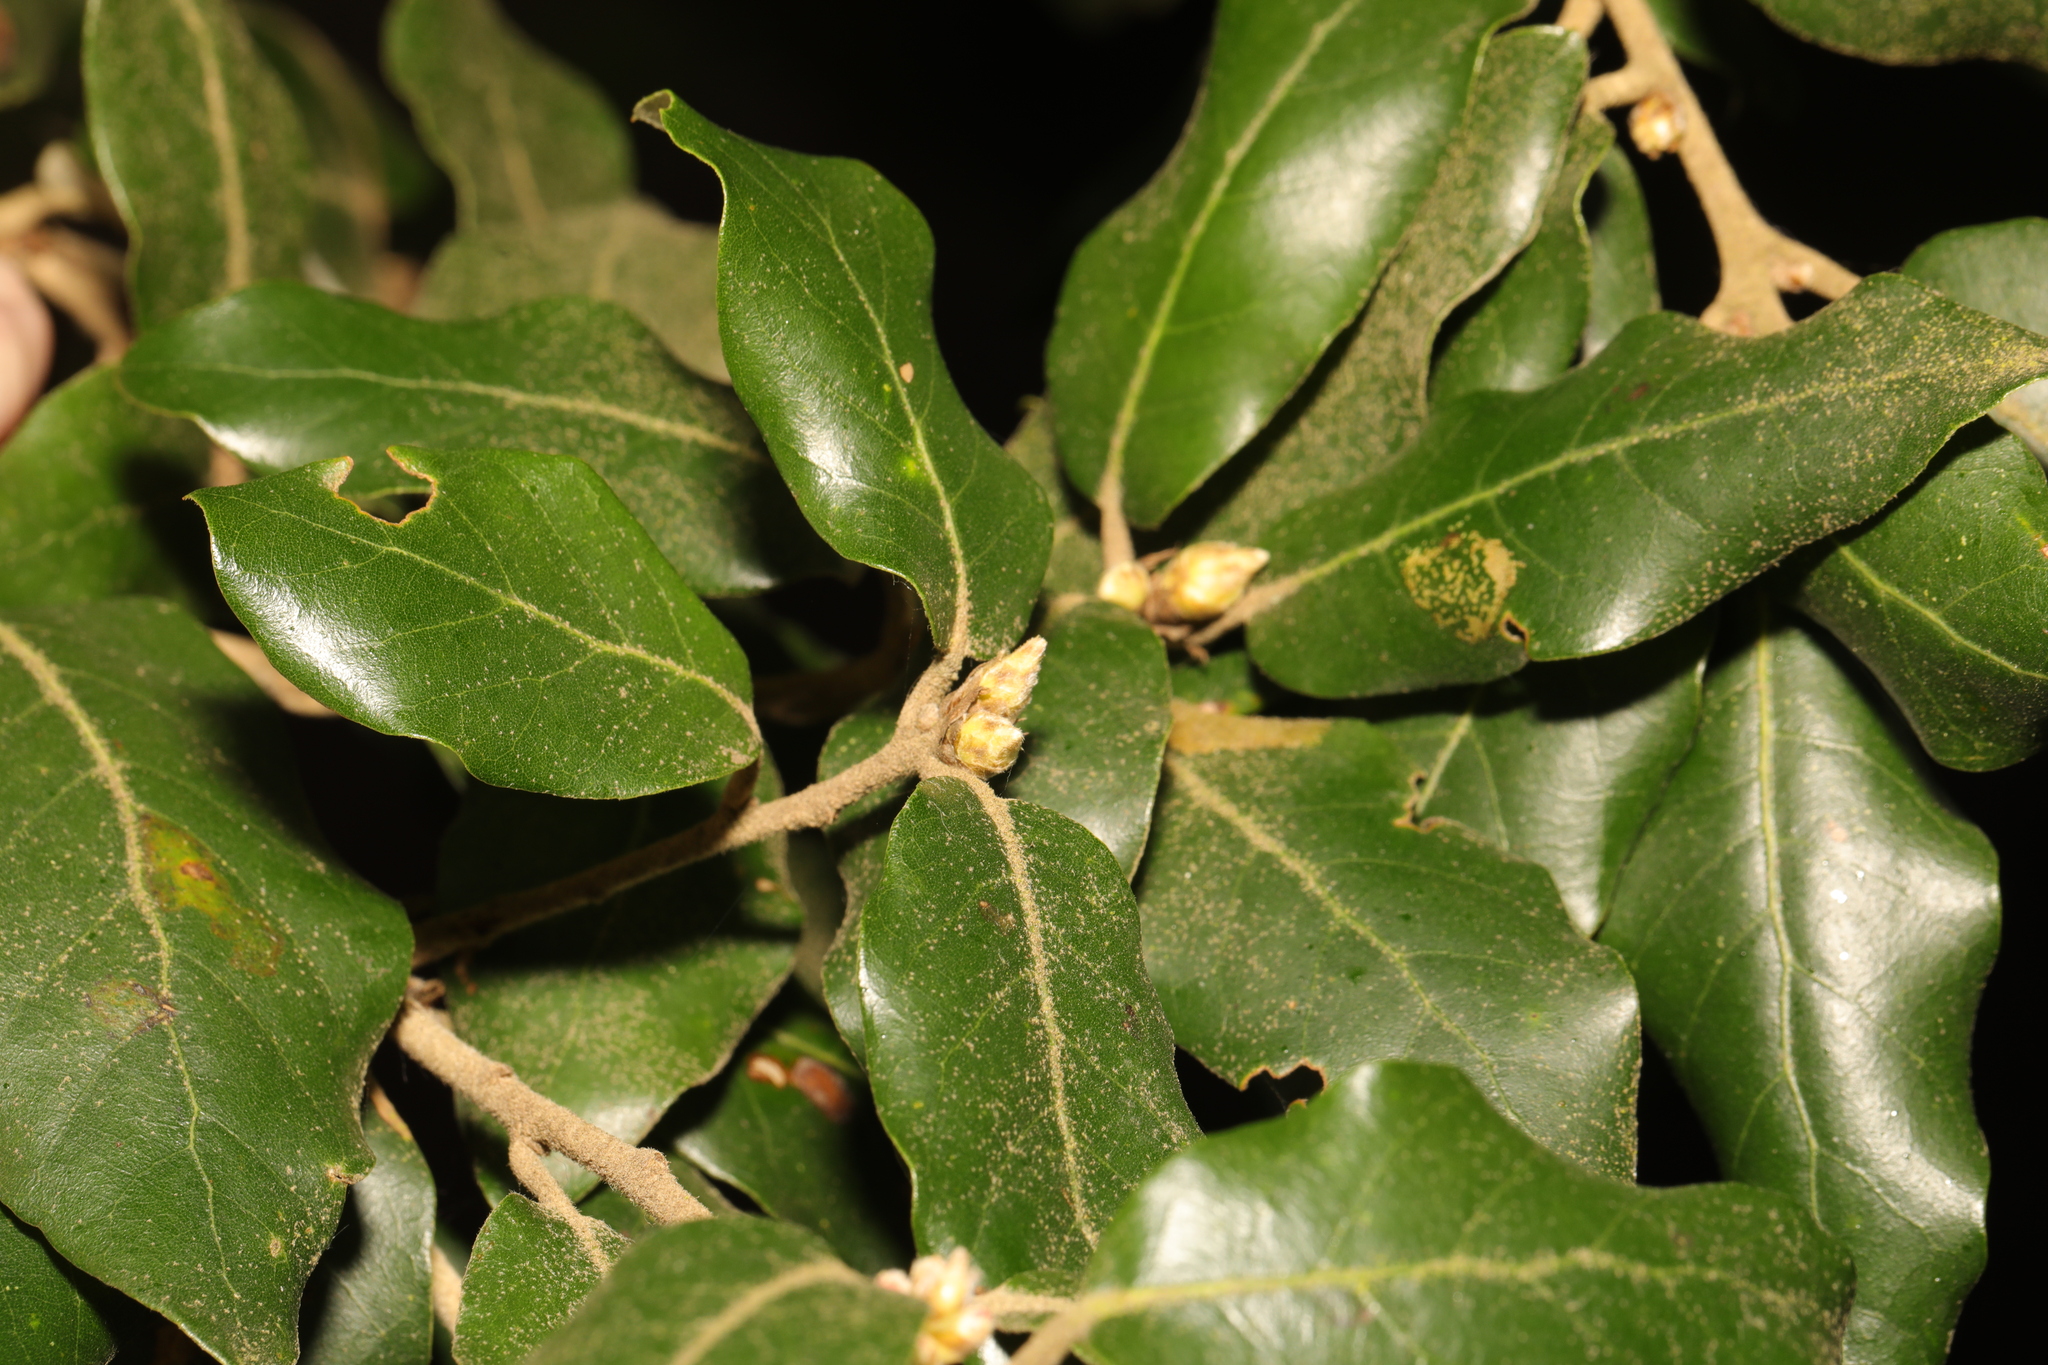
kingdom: Plantae
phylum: Tracheophyta
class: Magnoliopsida
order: Fagales
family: Fagaceae
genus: Quercus
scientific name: Quercus ilex
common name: Evergreen oak
